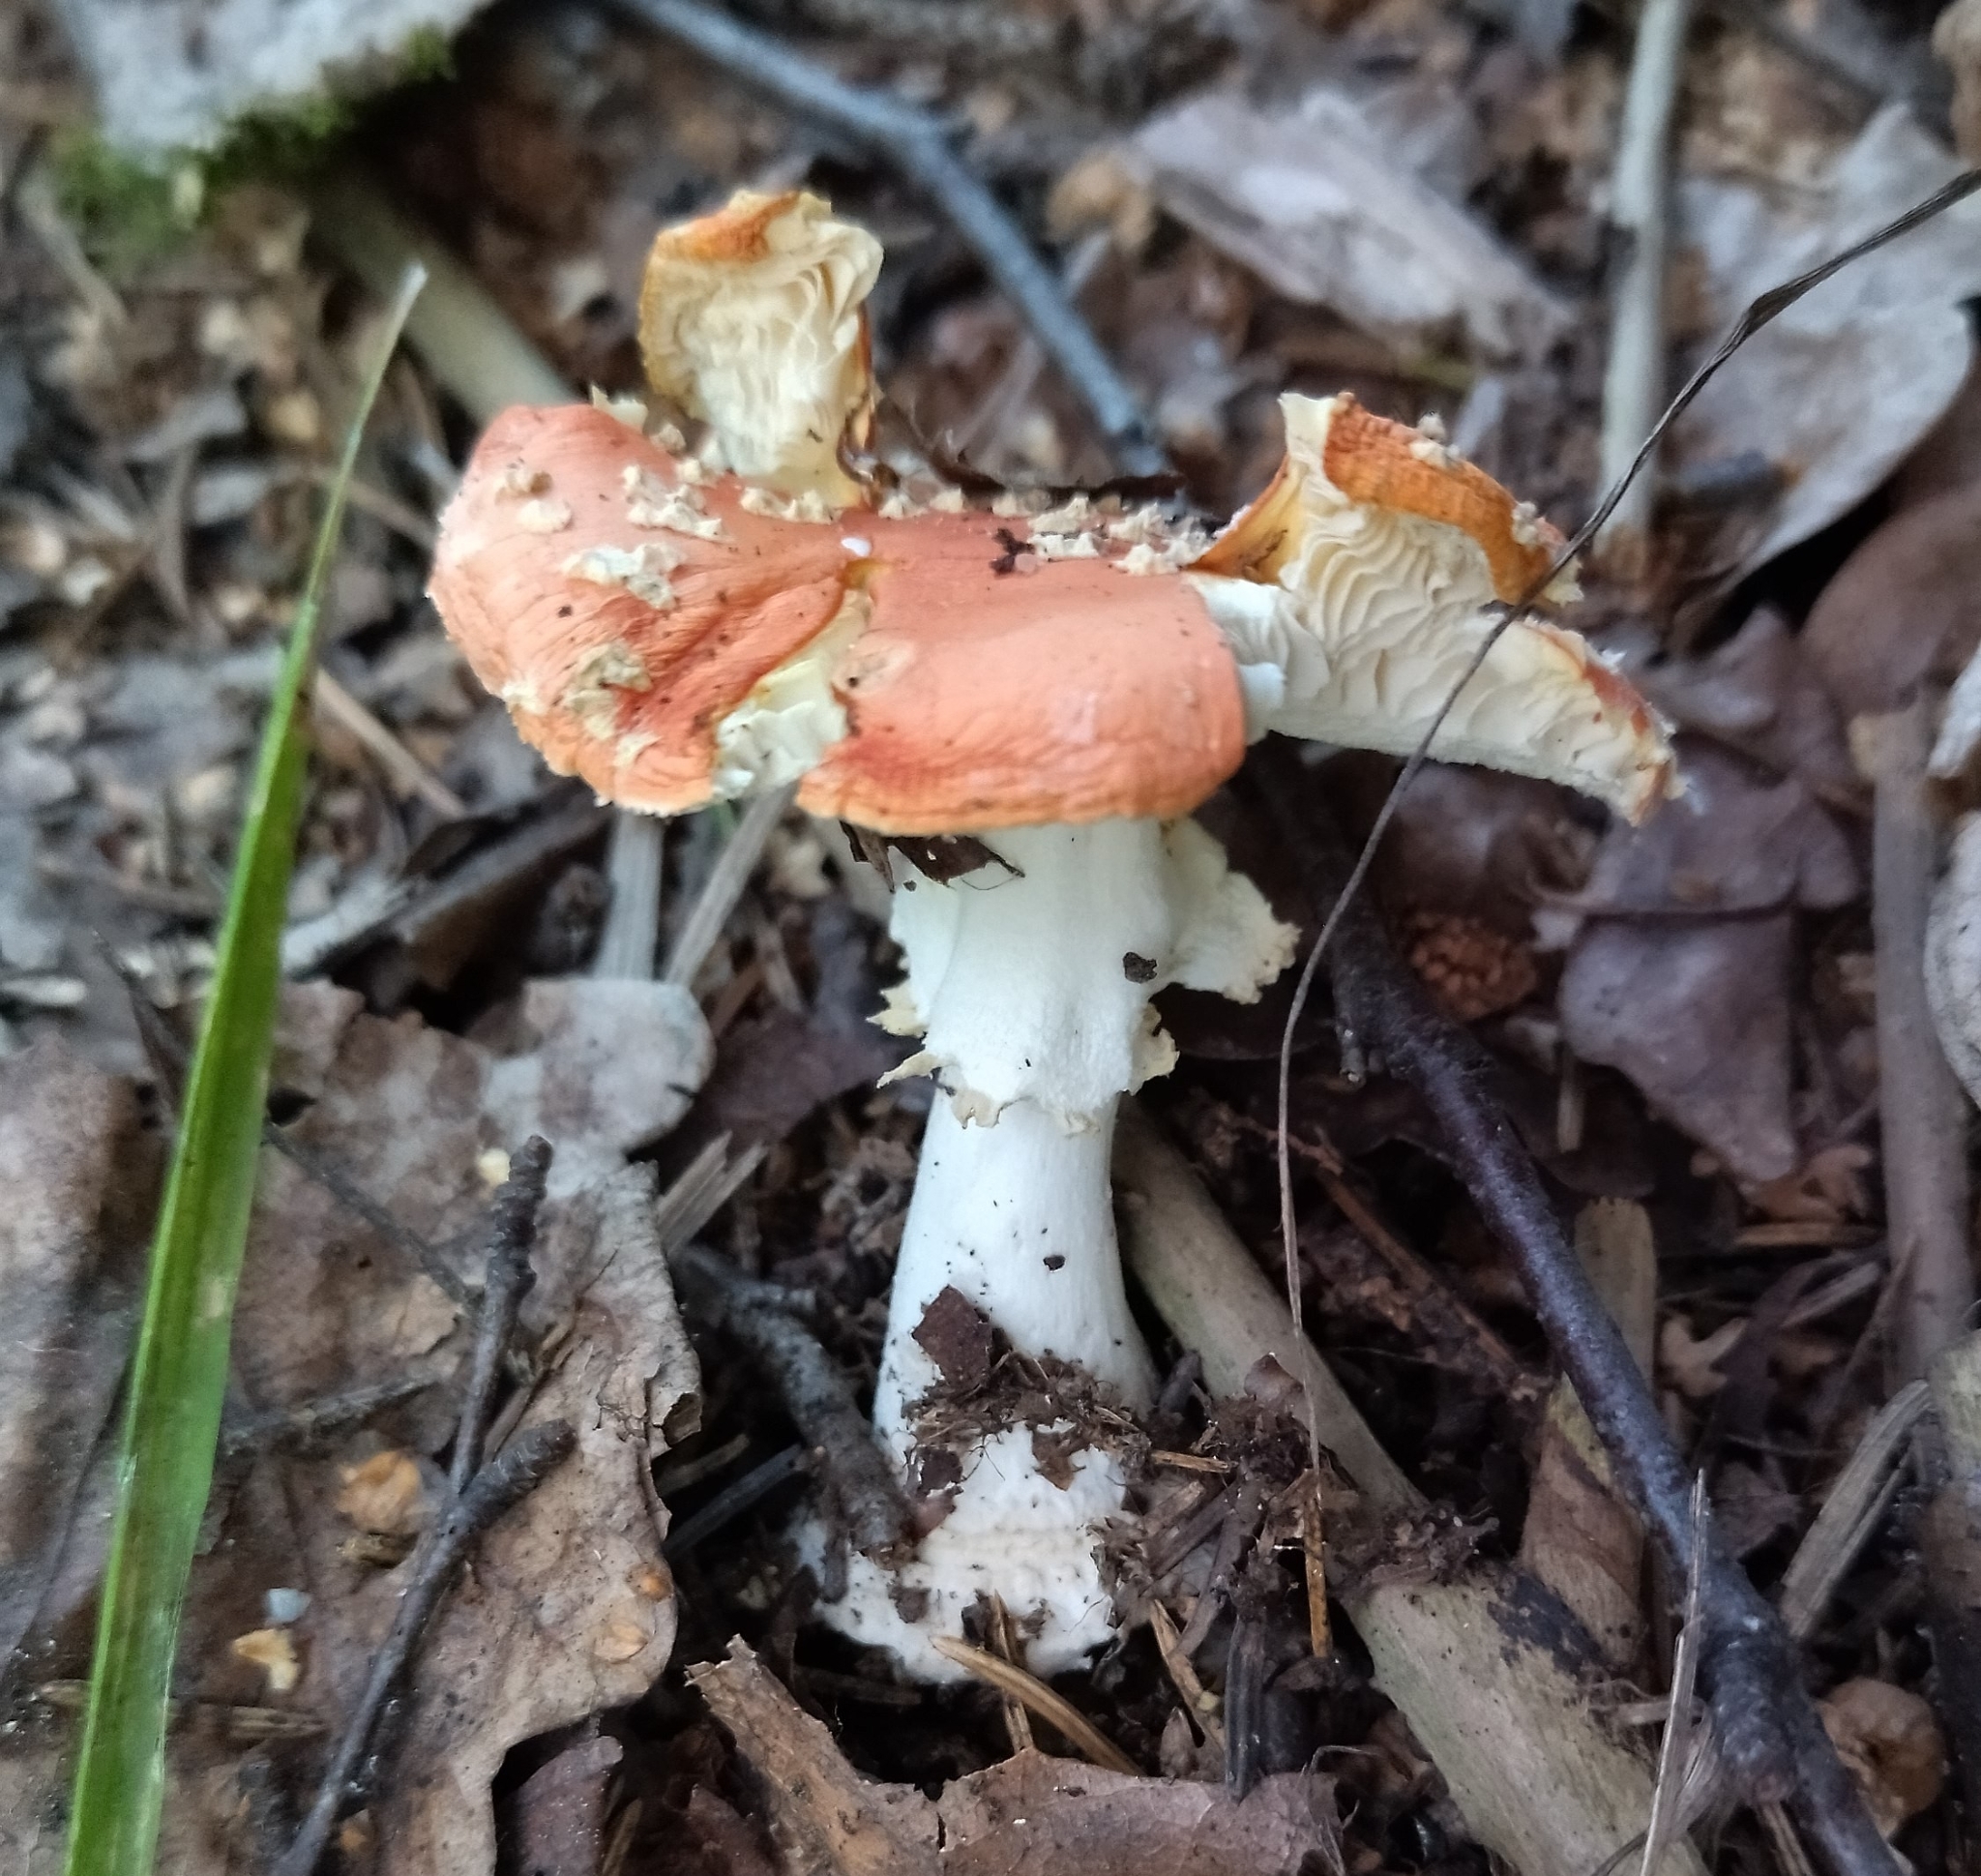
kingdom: Fungi
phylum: Basidiomycota
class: Agaricomycetes
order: Agaricales
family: Amanitaceae
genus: Amanita
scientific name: Amanita muscaria
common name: Fly agaric
